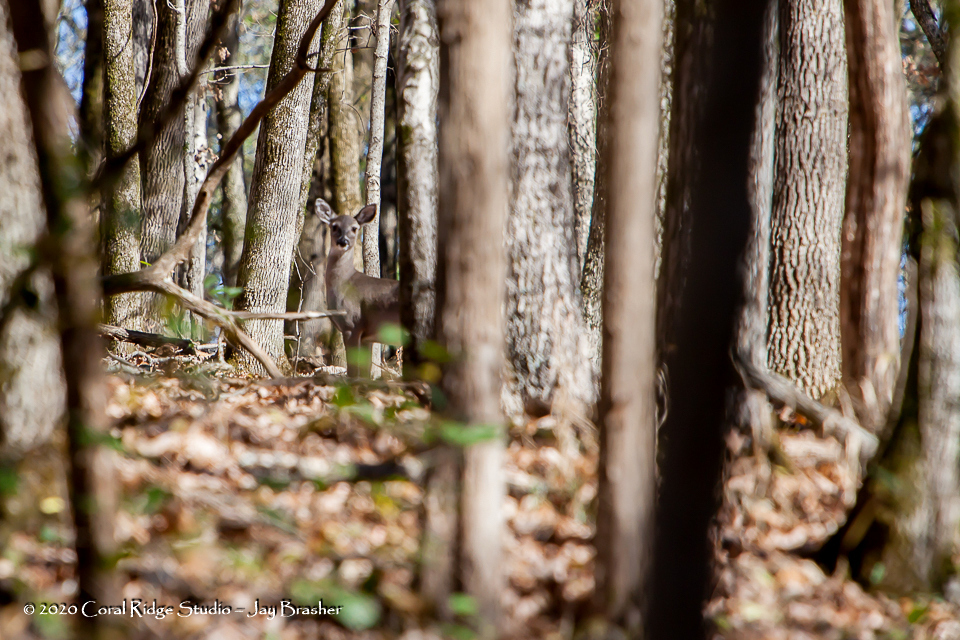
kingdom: Animalia
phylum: Chordata
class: Mammalia
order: Artiodactyla
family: Cervidae
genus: Odocoileus
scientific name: Odocoileus virginianus
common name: White-tailed deer
